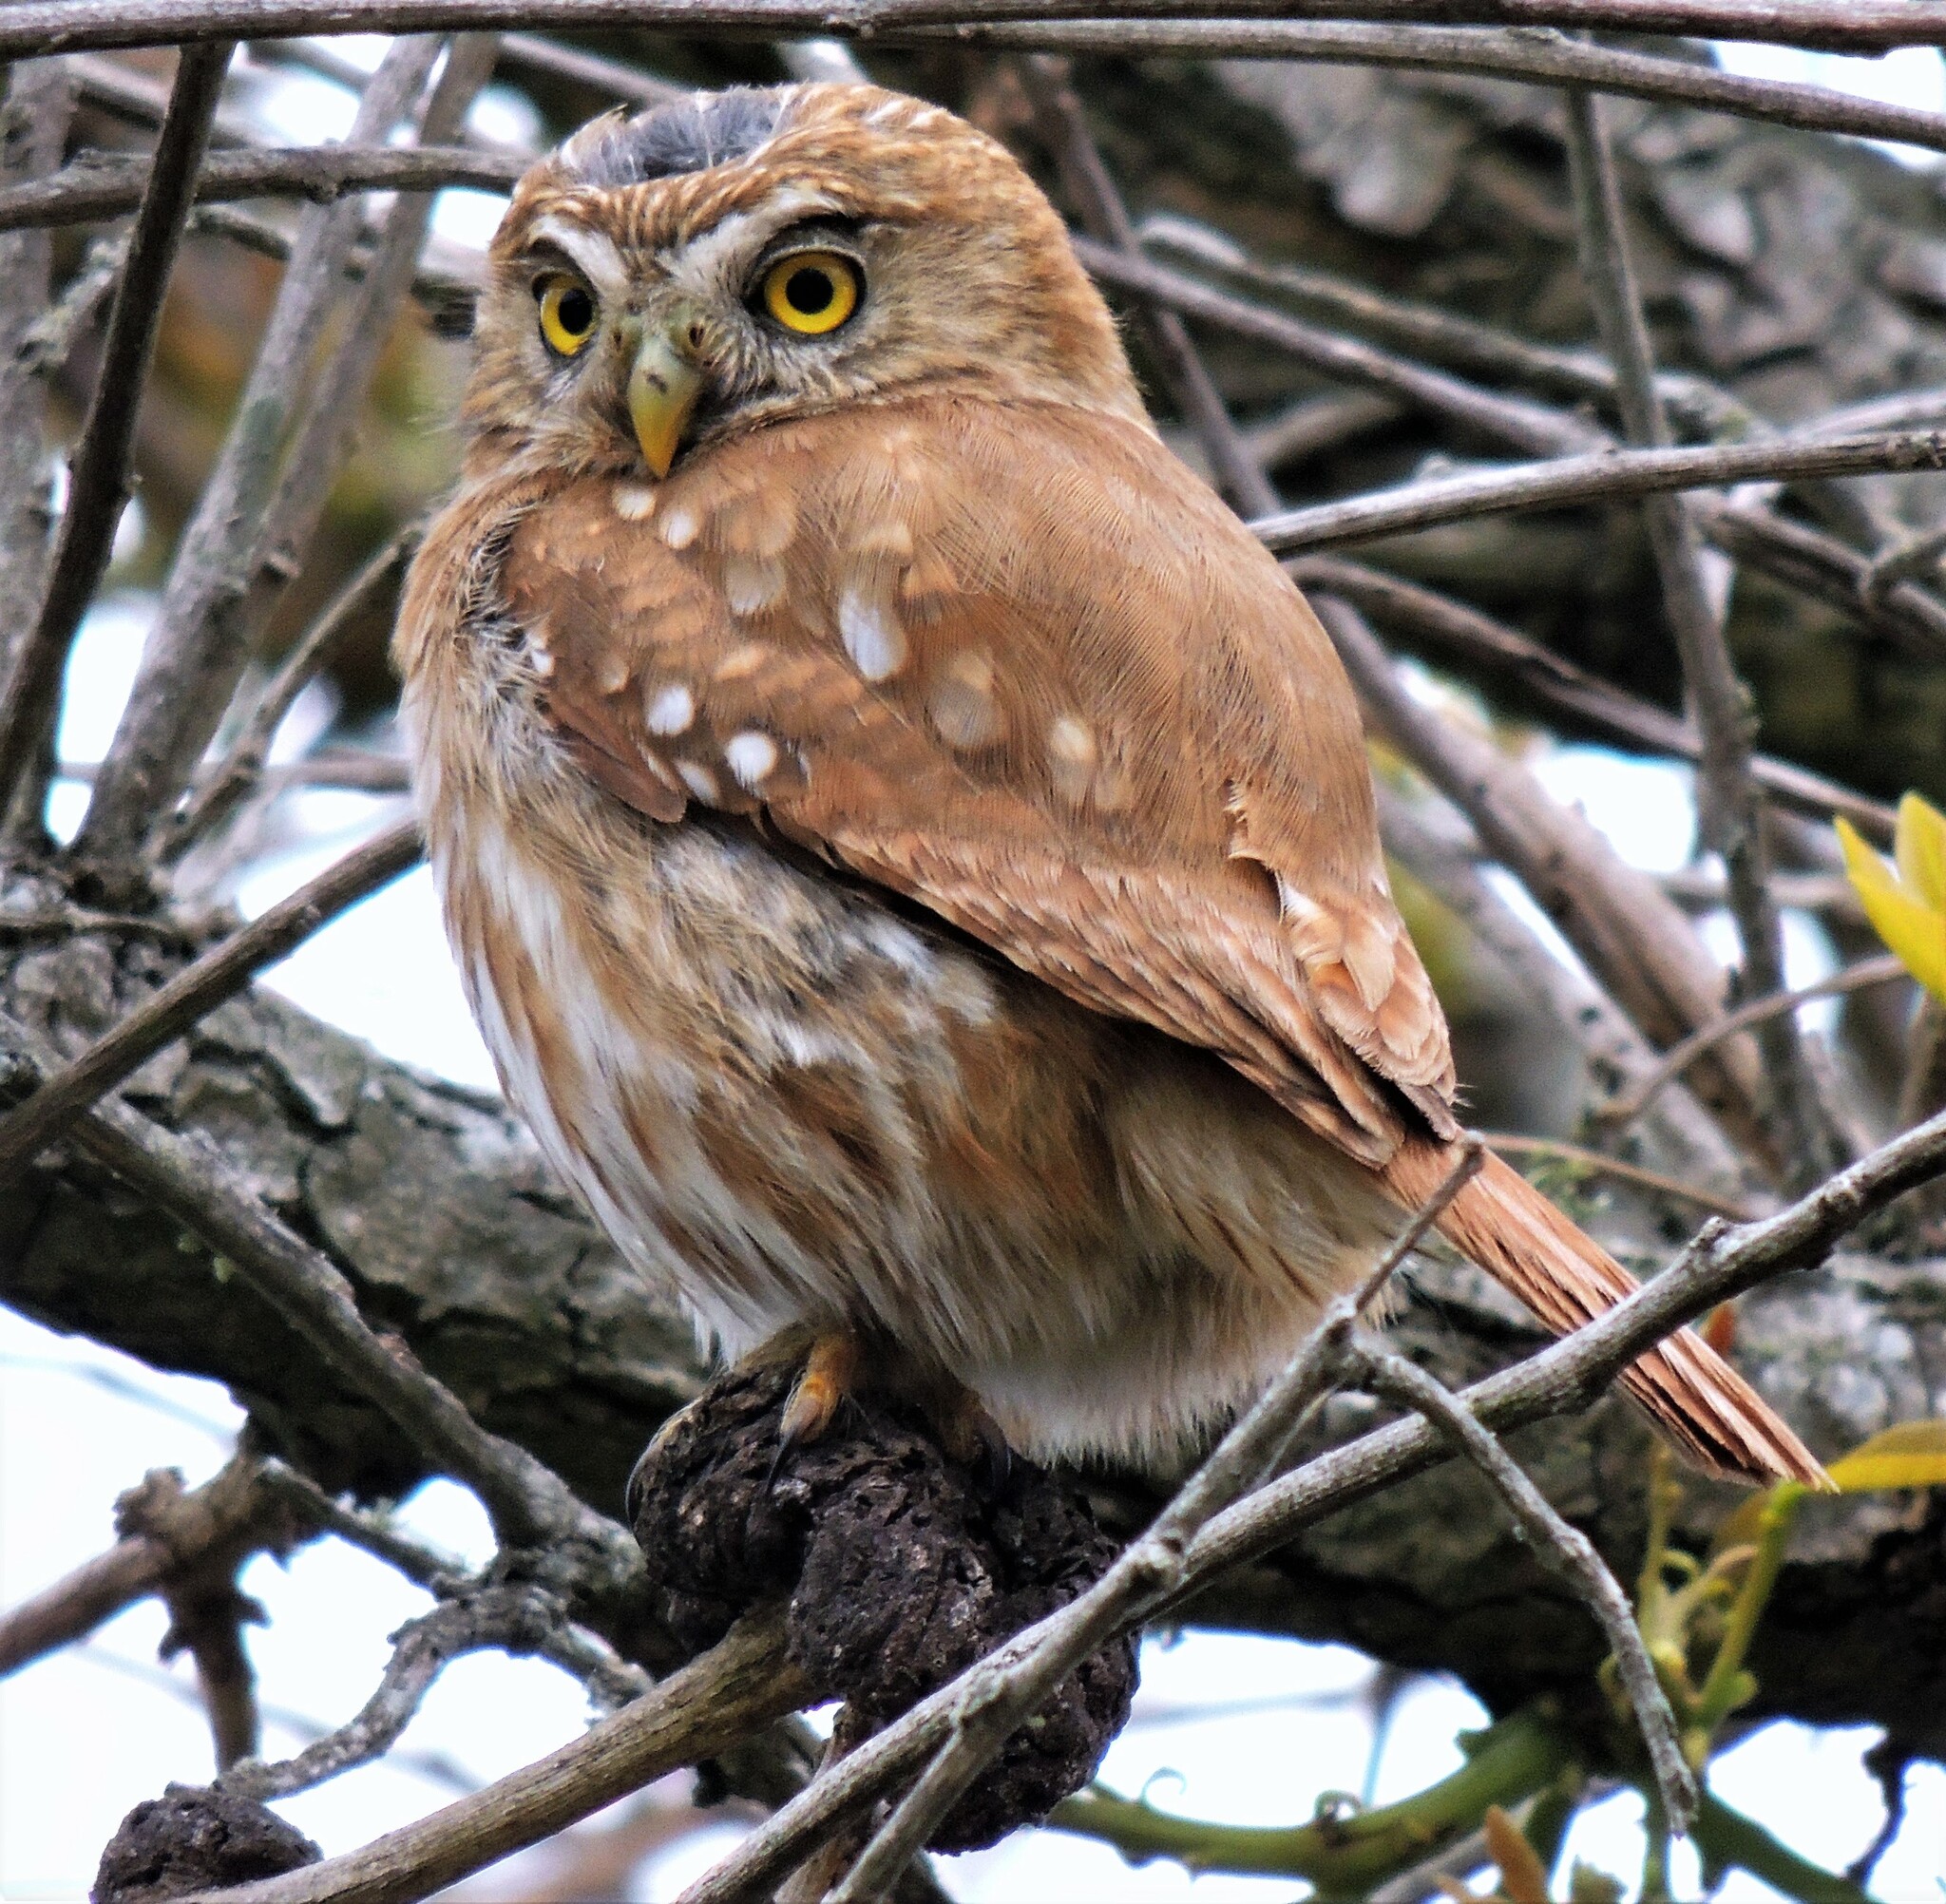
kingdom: Animalia
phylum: Chordata
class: Aves
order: Strigiformes
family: Strigidae
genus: Glaucidium
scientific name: Glaucidium brasilianum
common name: Ferruginous pygmy-owl
